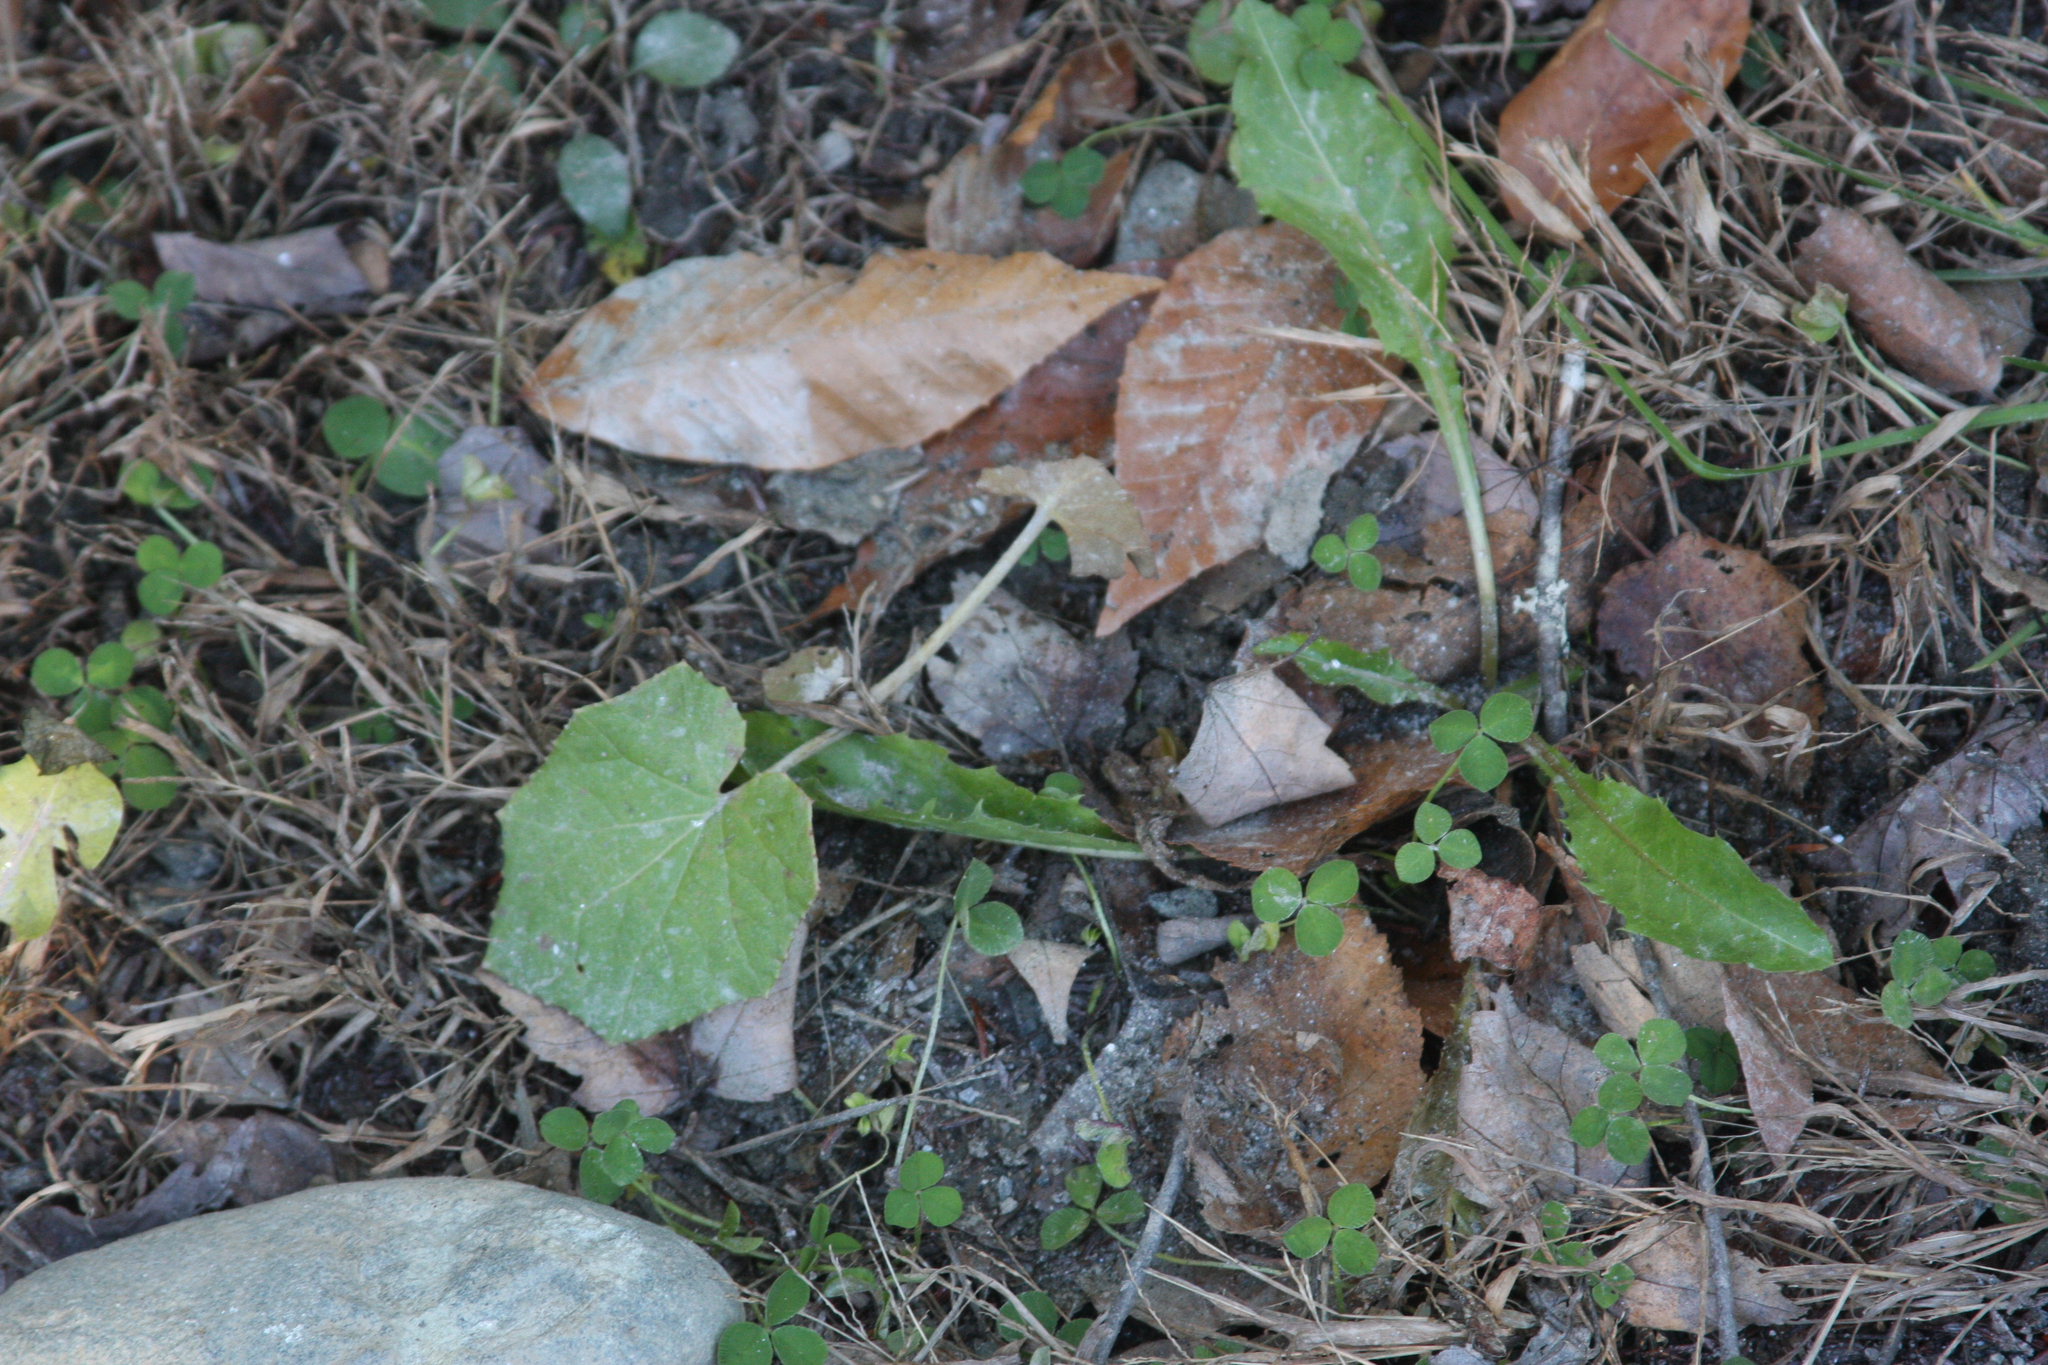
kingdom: Plantae
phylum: Tracheophyta
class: Magnoliopsida
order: Asterales
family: Asteraceae
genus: Tussilago
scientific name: Tussilago farfara
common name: Coltsfoot
